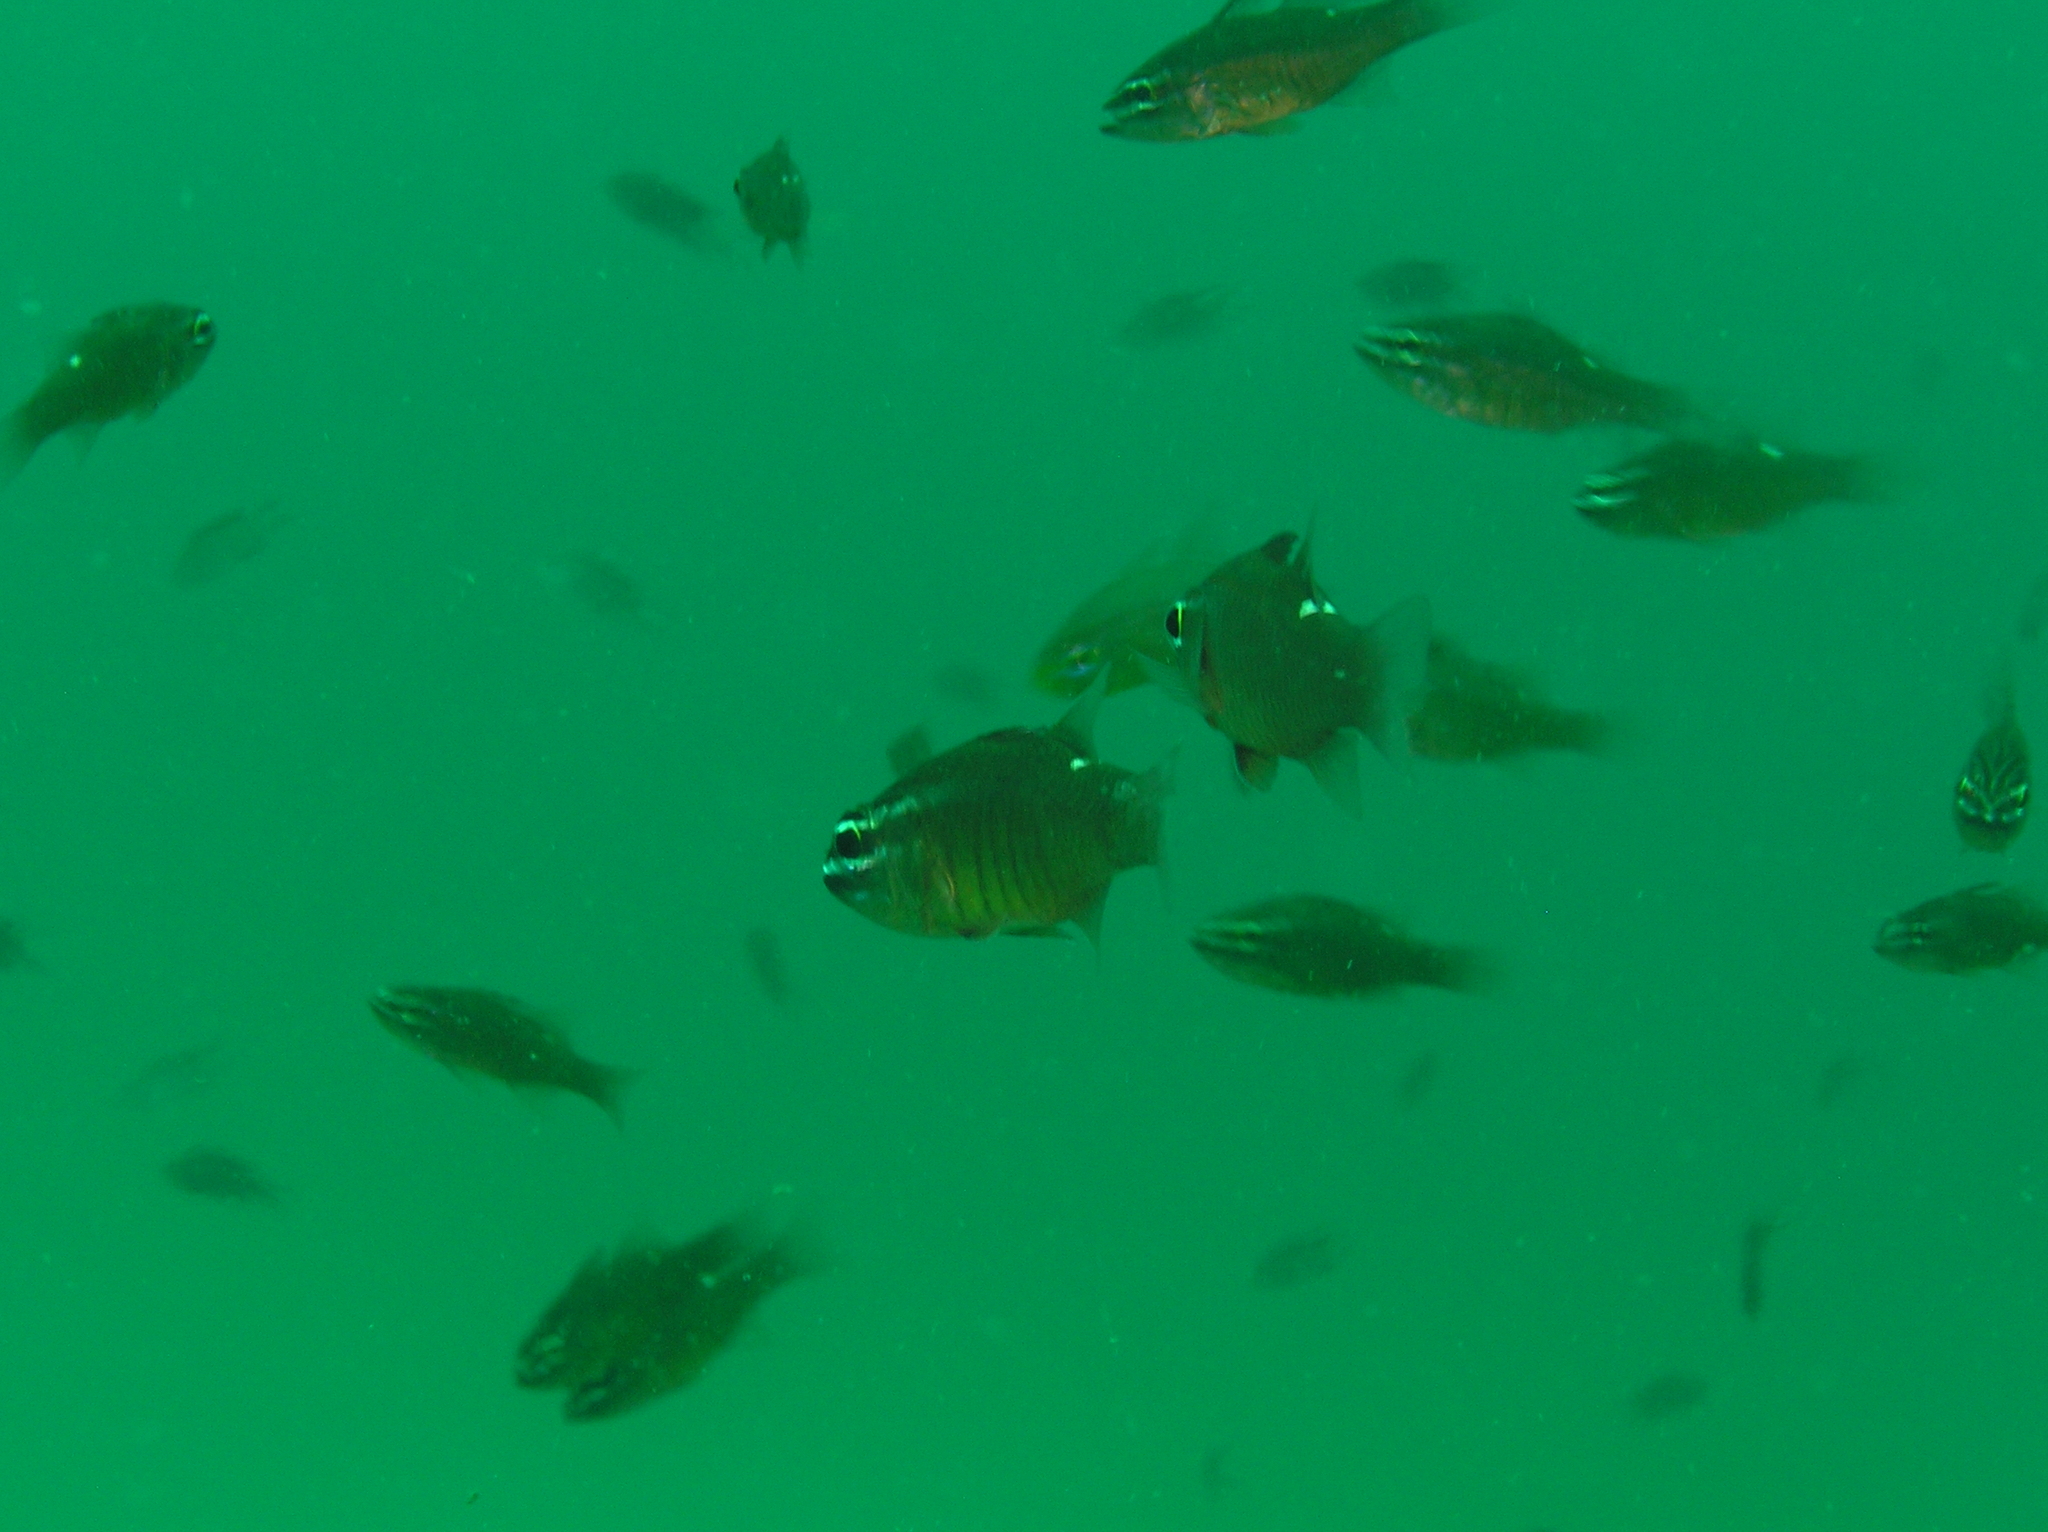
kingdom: Animalia
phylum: Chordata
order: Perciformes
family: Apogonidae
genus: Ostorhinchus
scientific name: Ostorhinchus moluccensis
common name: Moluccan cardinalfish
